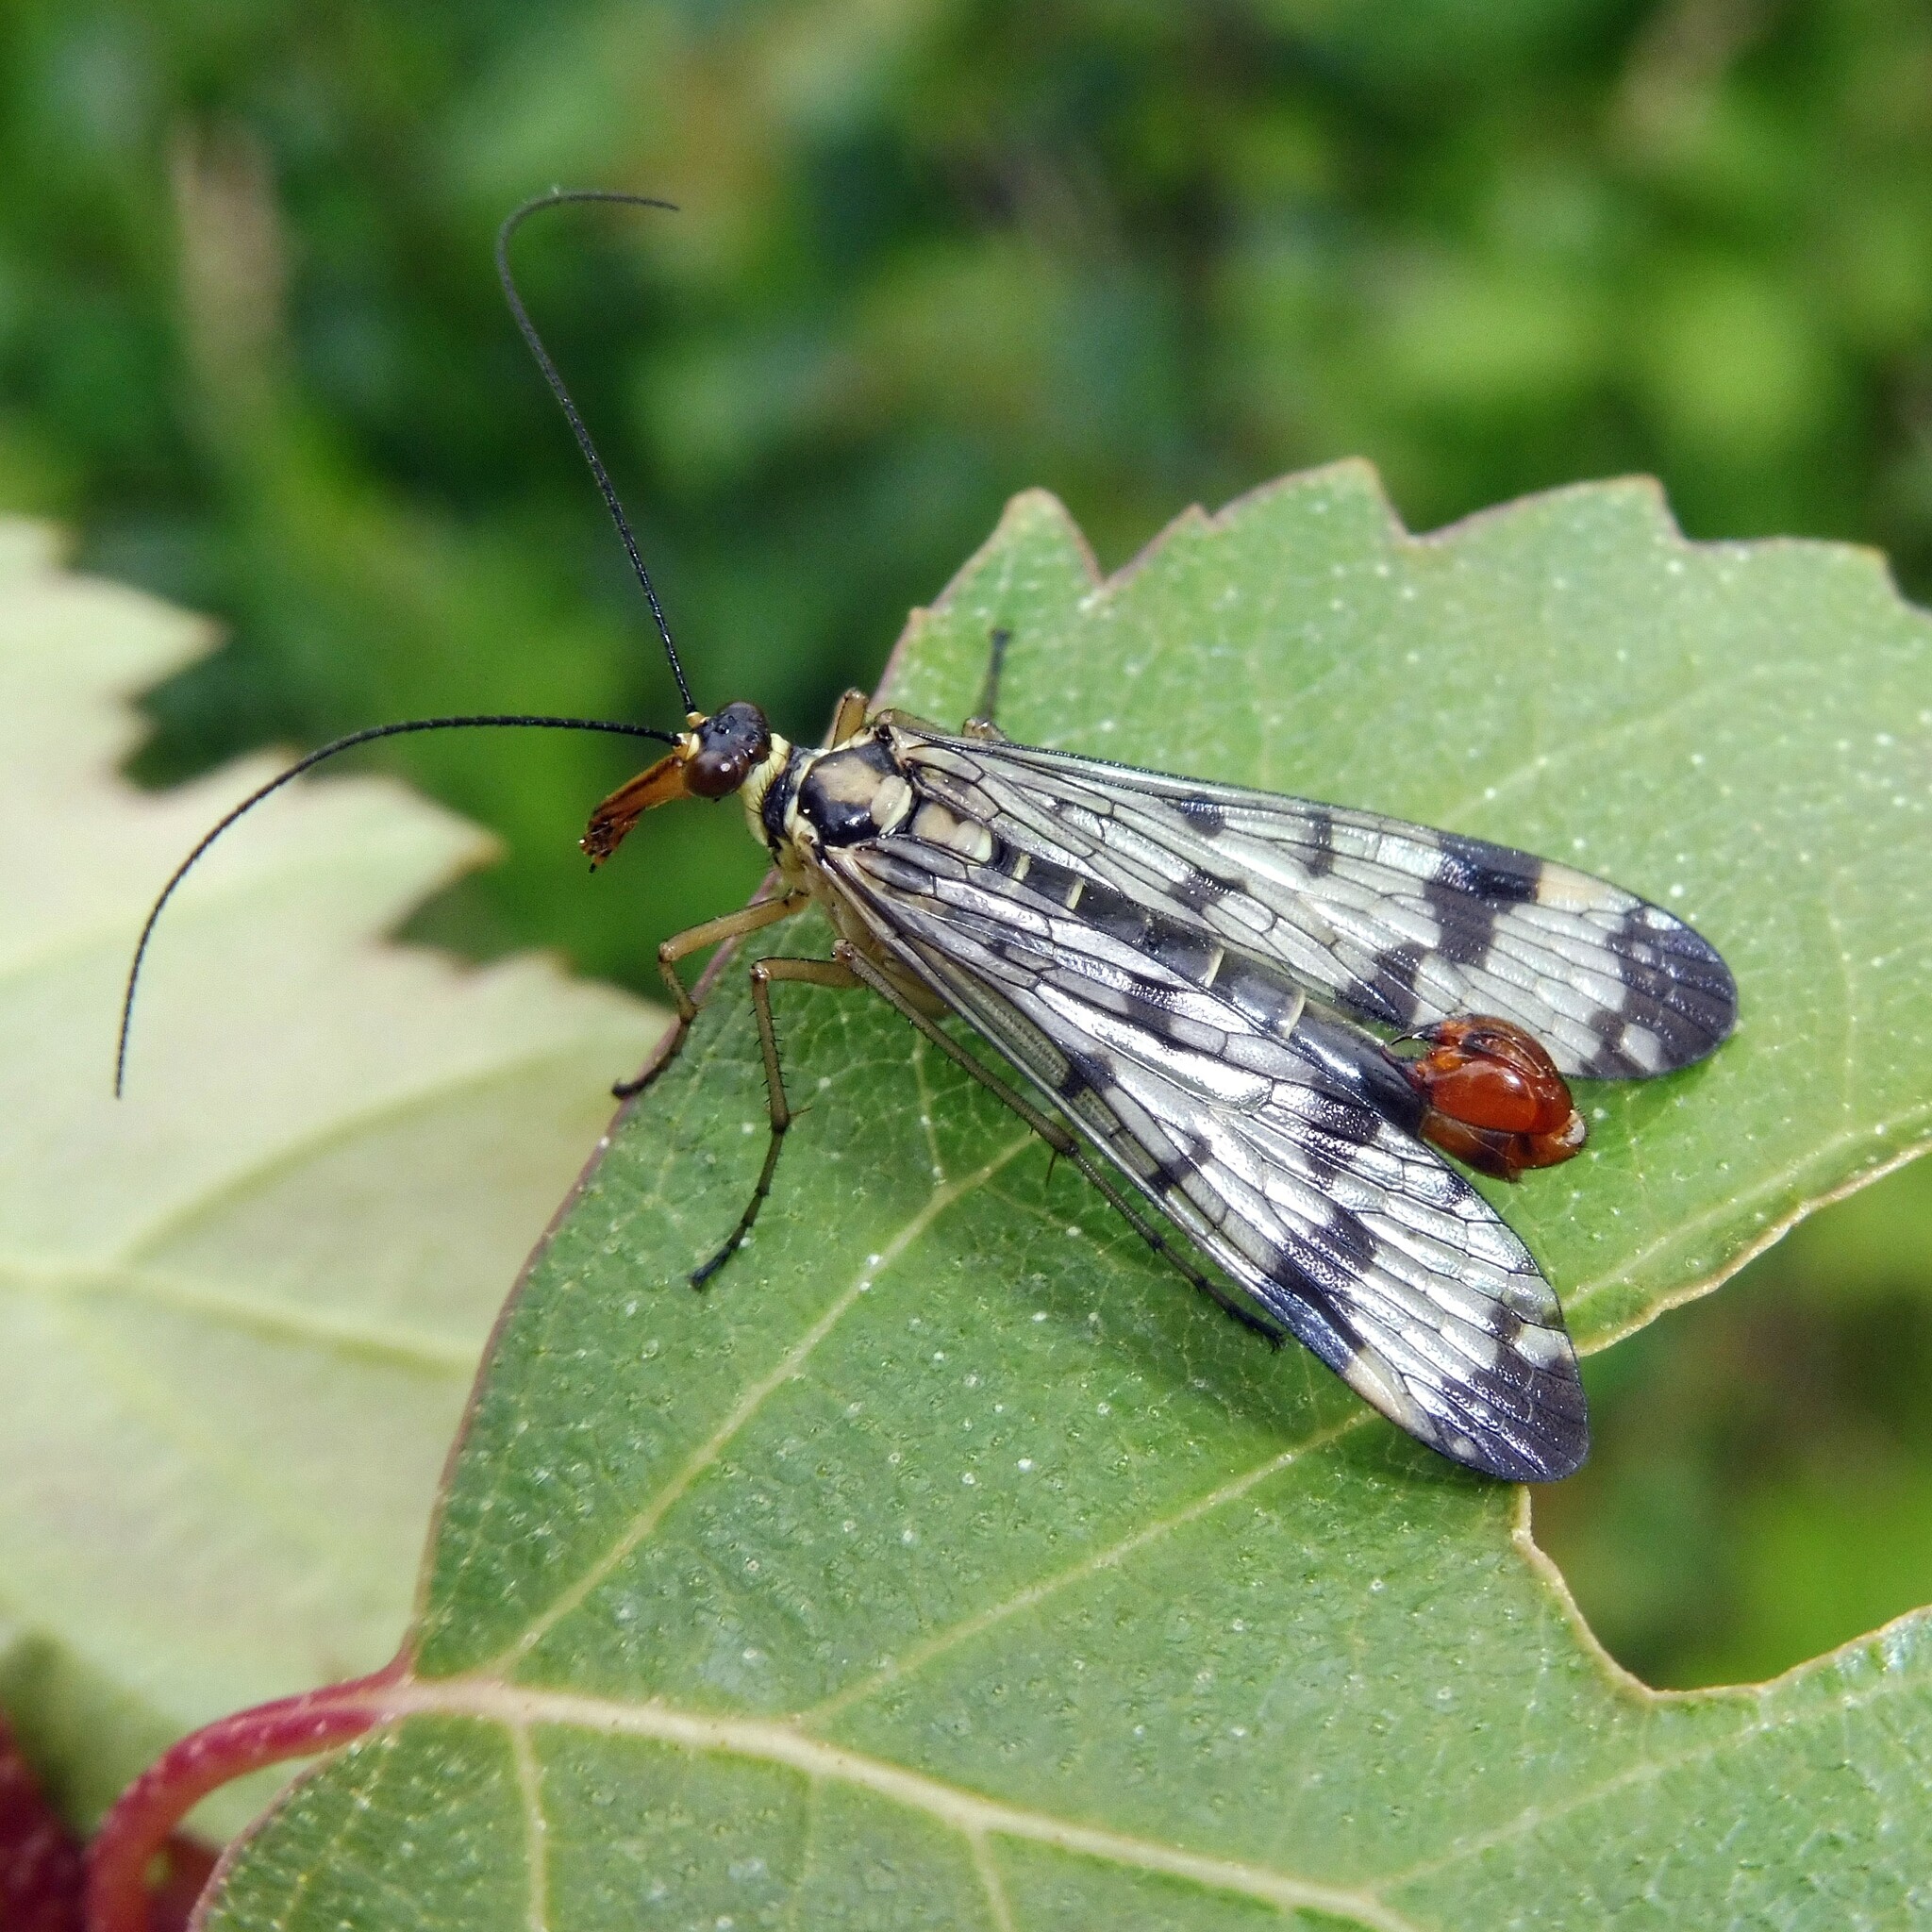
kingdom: Animalia
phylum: Arthropoda
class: Insecta
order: Mecoptera
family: Panorpidae
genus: Panorpa
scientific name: Panorpa communis
